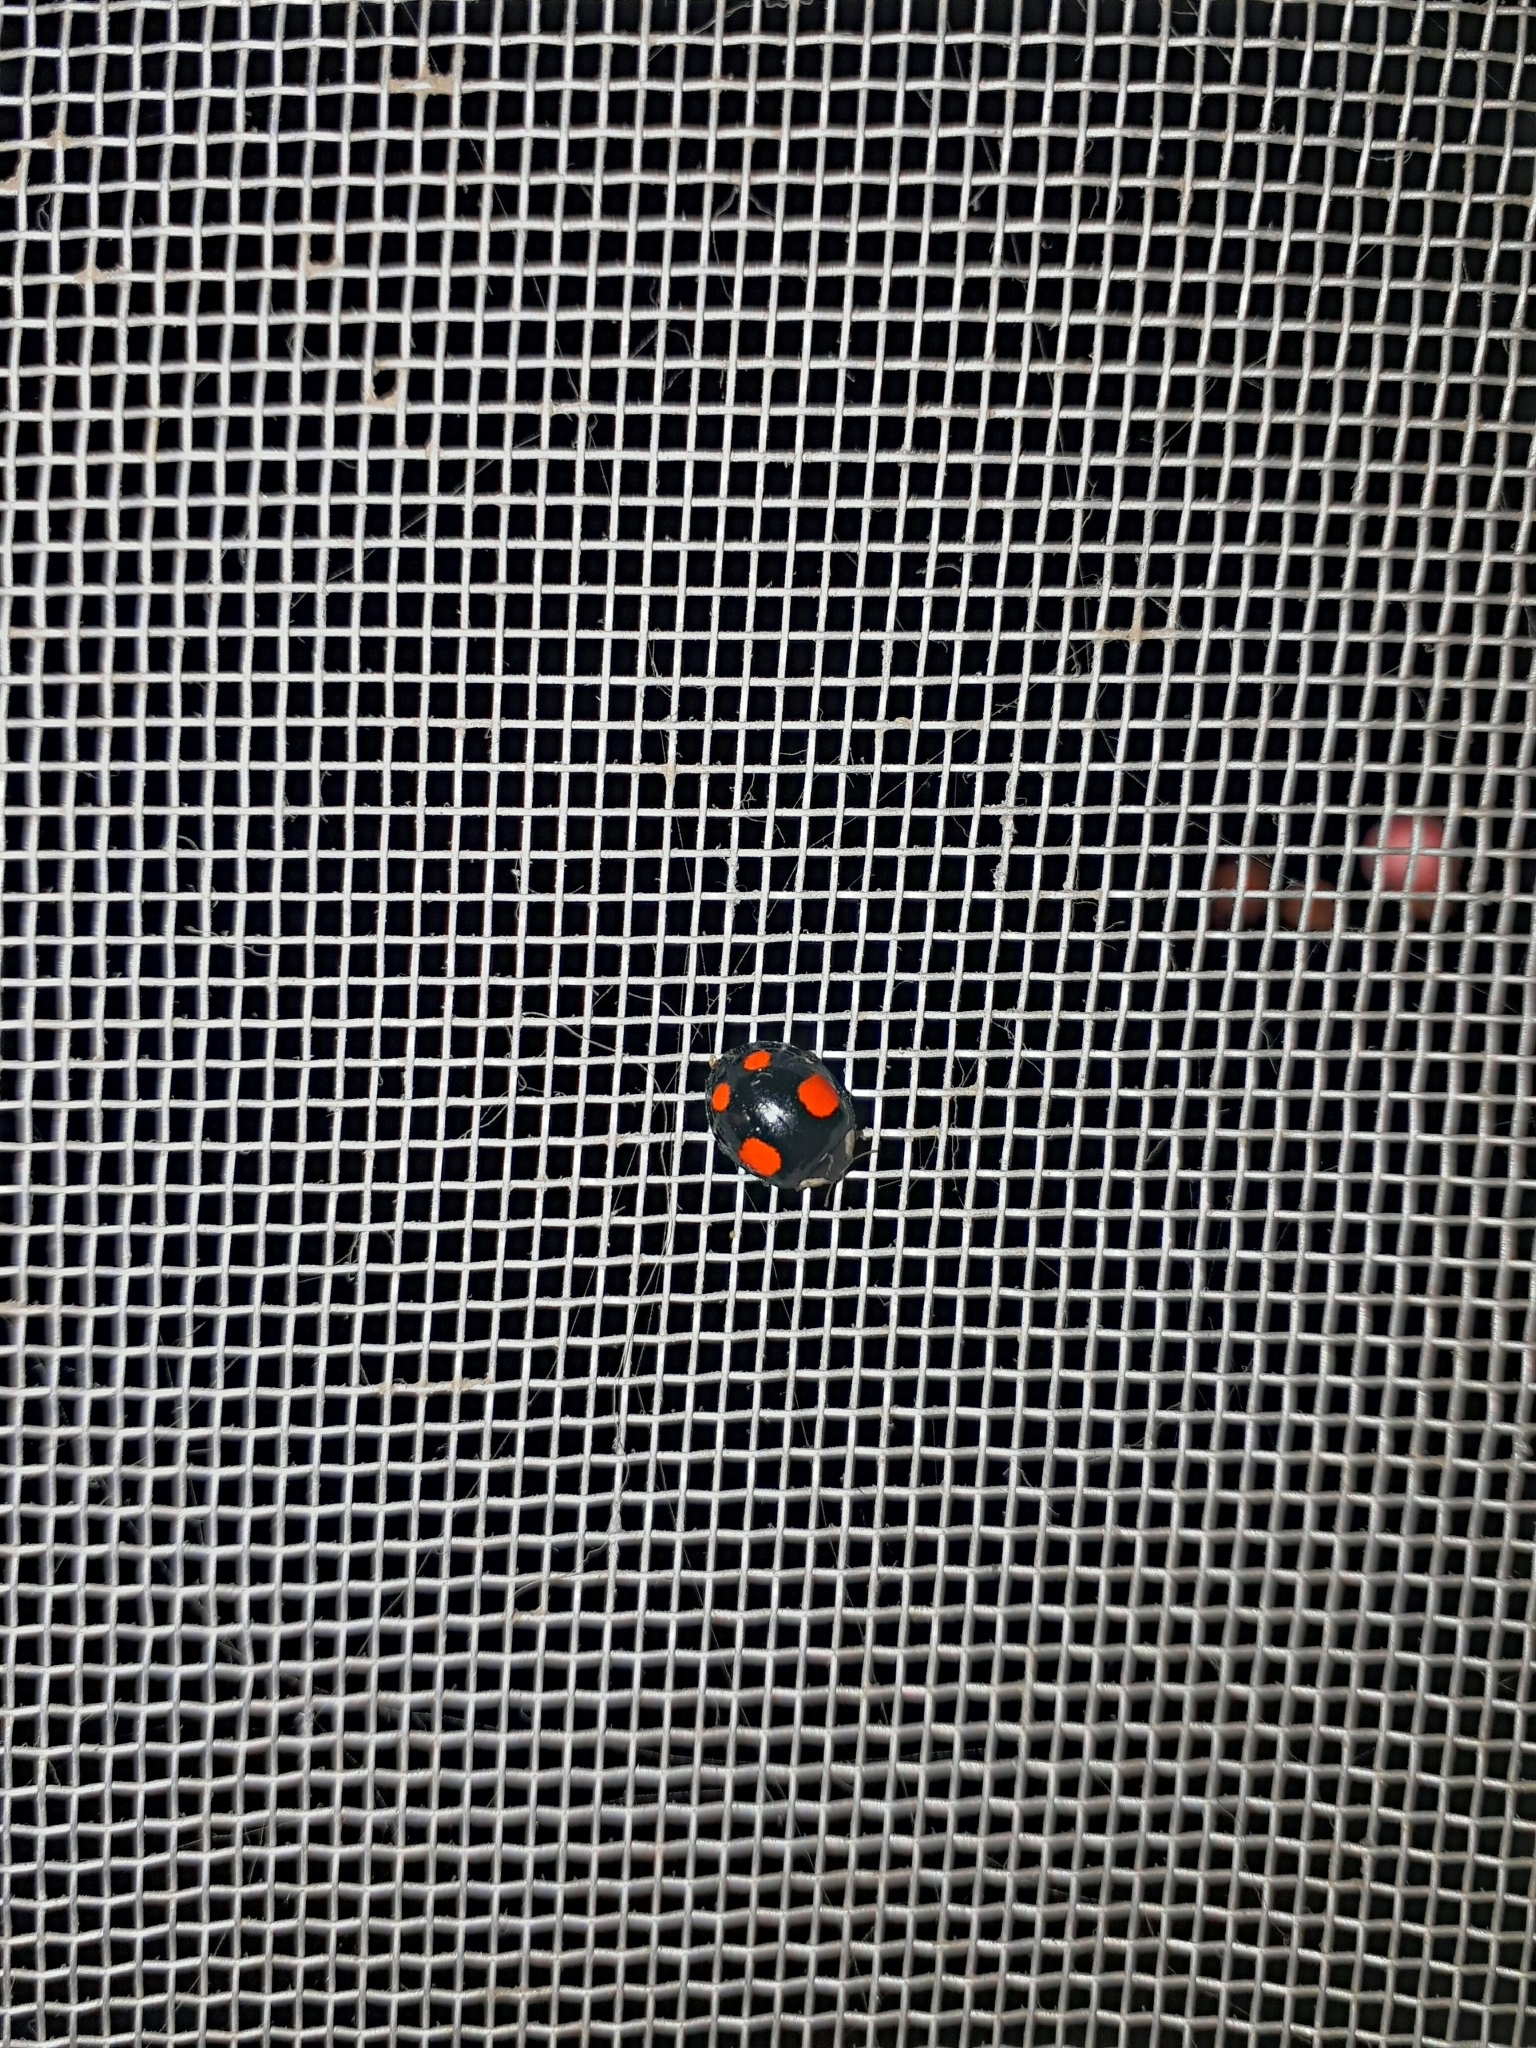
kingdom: Animalia
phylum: Arthropoda
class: Insecta
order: Coleoptera
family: Coccinellidae
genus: Harmonia
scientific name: Harmonia axyridis
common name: Harlequin ladybird
